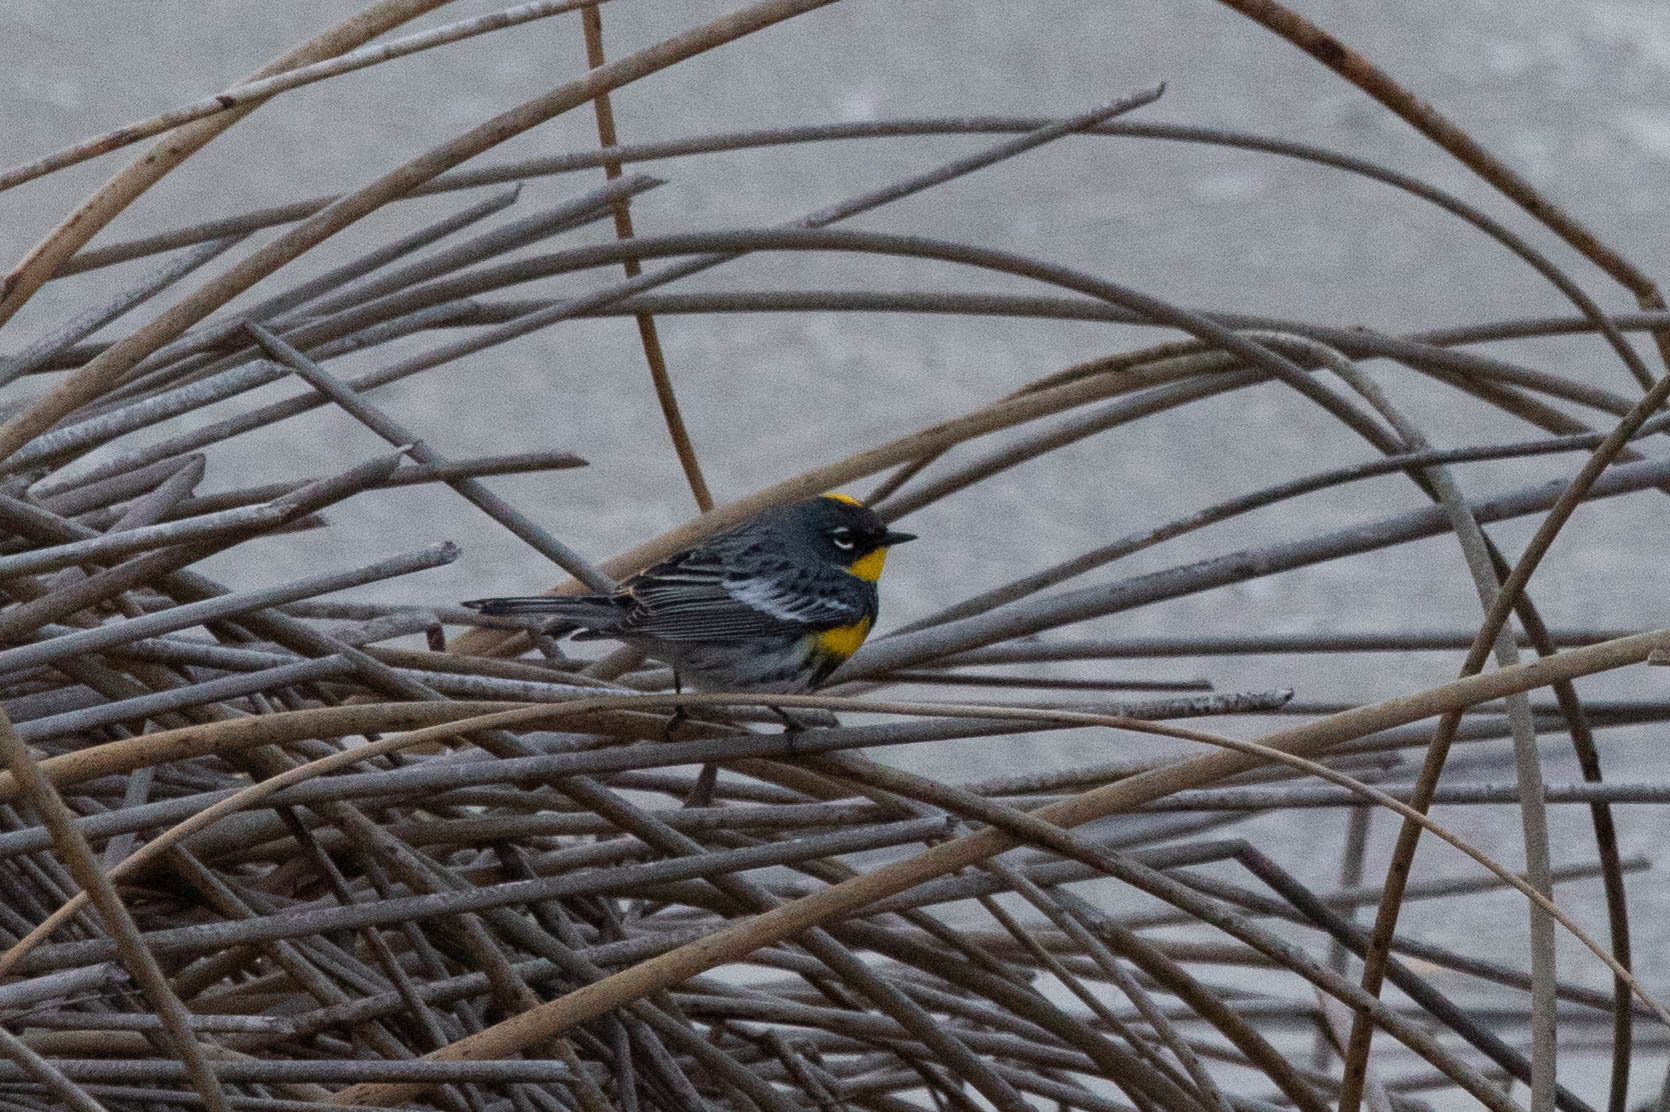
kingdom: Animalia
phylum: Chordata
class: Aves
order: Passeriformes
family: Parulidae
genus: Setophaga
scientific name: Setophaga auduboni
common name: Audubon's warbler
